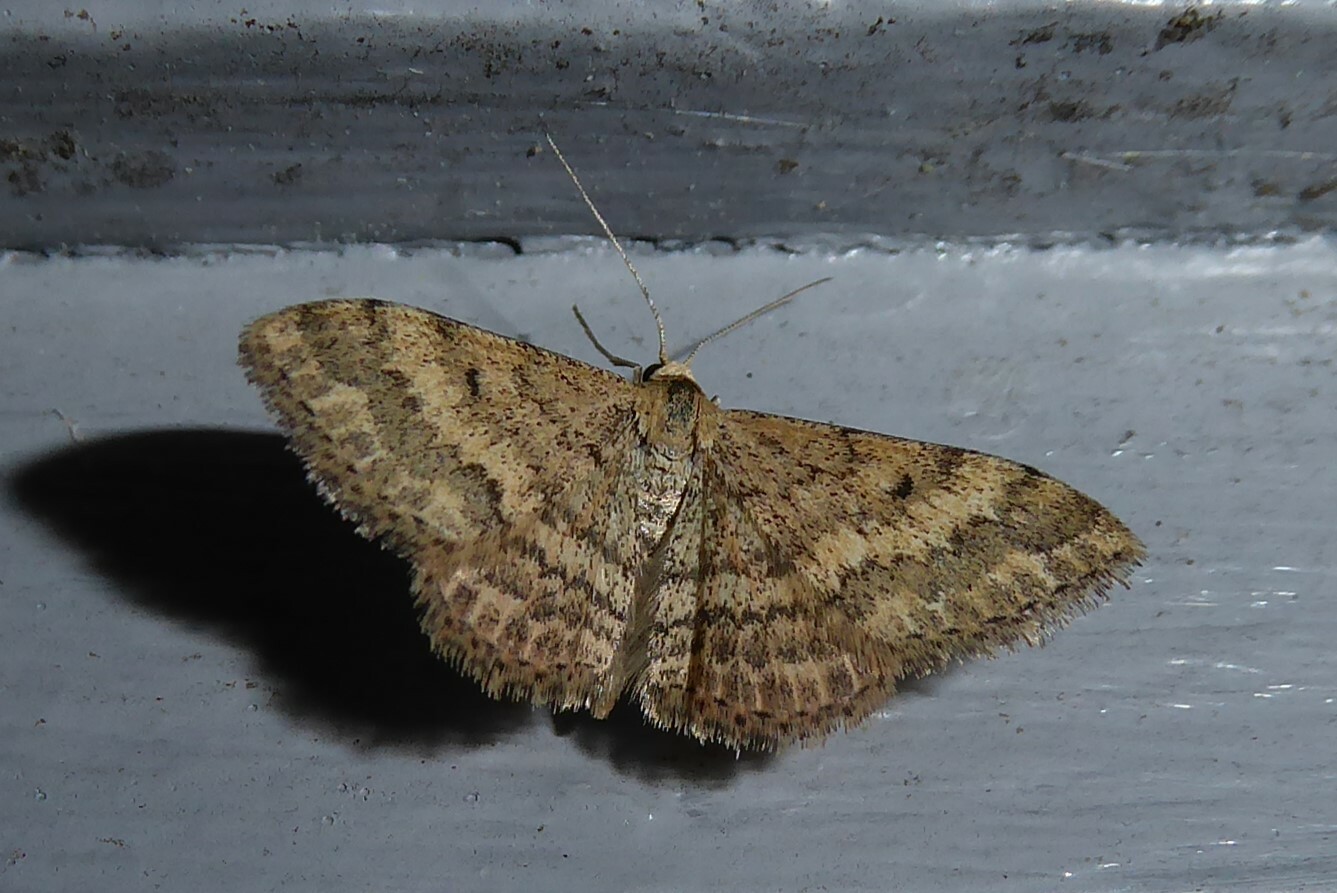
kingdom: Animalia
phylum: Arthropoda
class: Insecta
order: Lepidoptera
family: Geometridae
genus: Scopula
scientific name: Scopula rubraria
